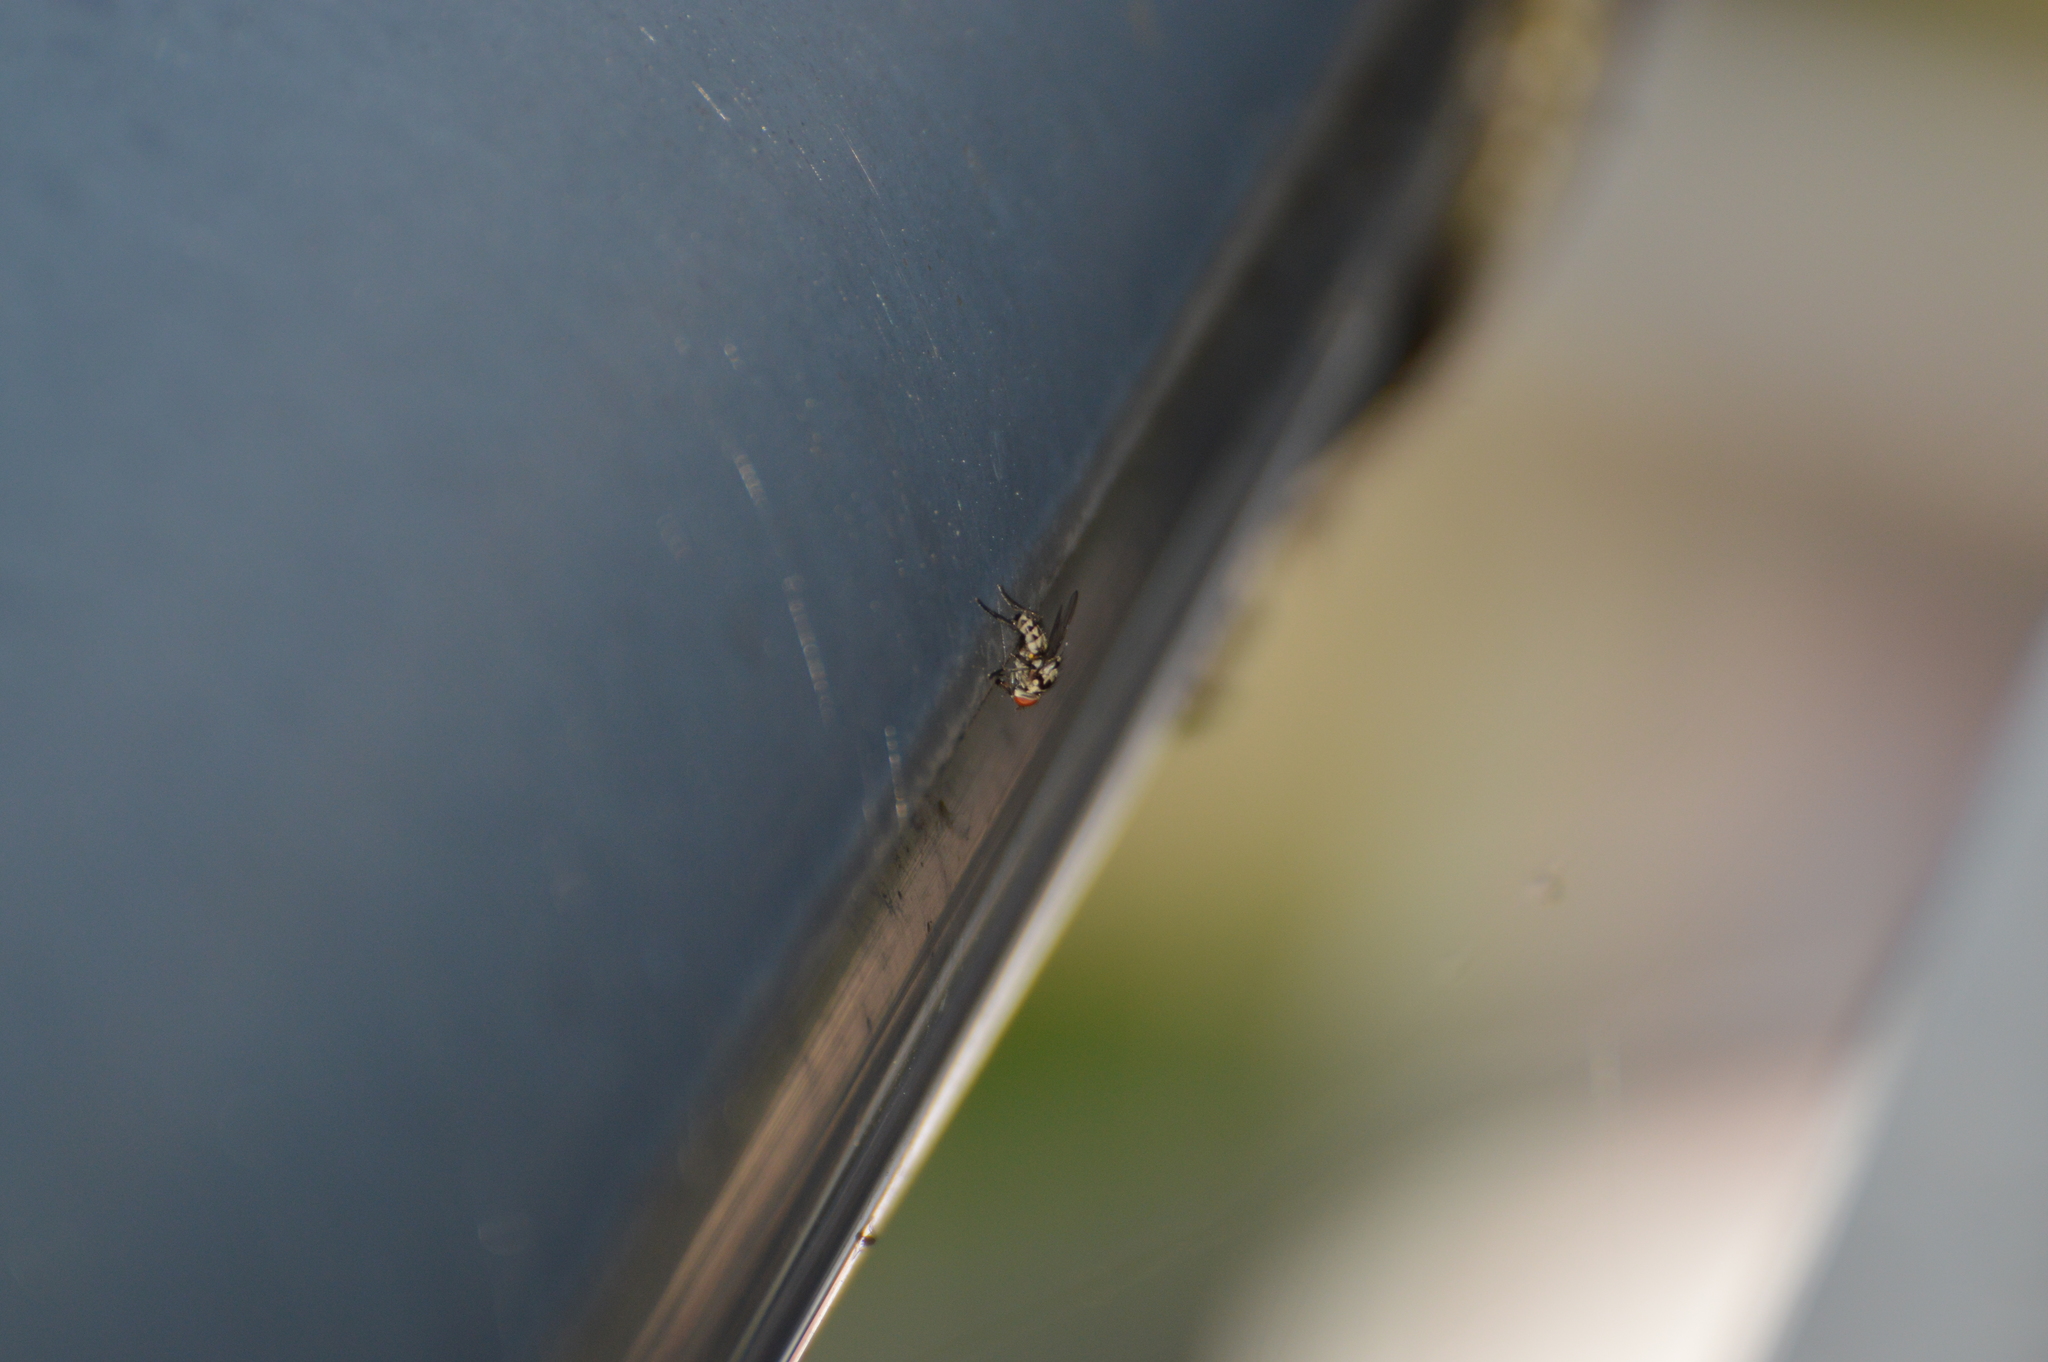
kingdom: Animalia
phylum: Arthropoda
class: Insecta
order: Diptera
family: Anthomyiidae
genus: Anthomyia
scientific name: Anthomyia
